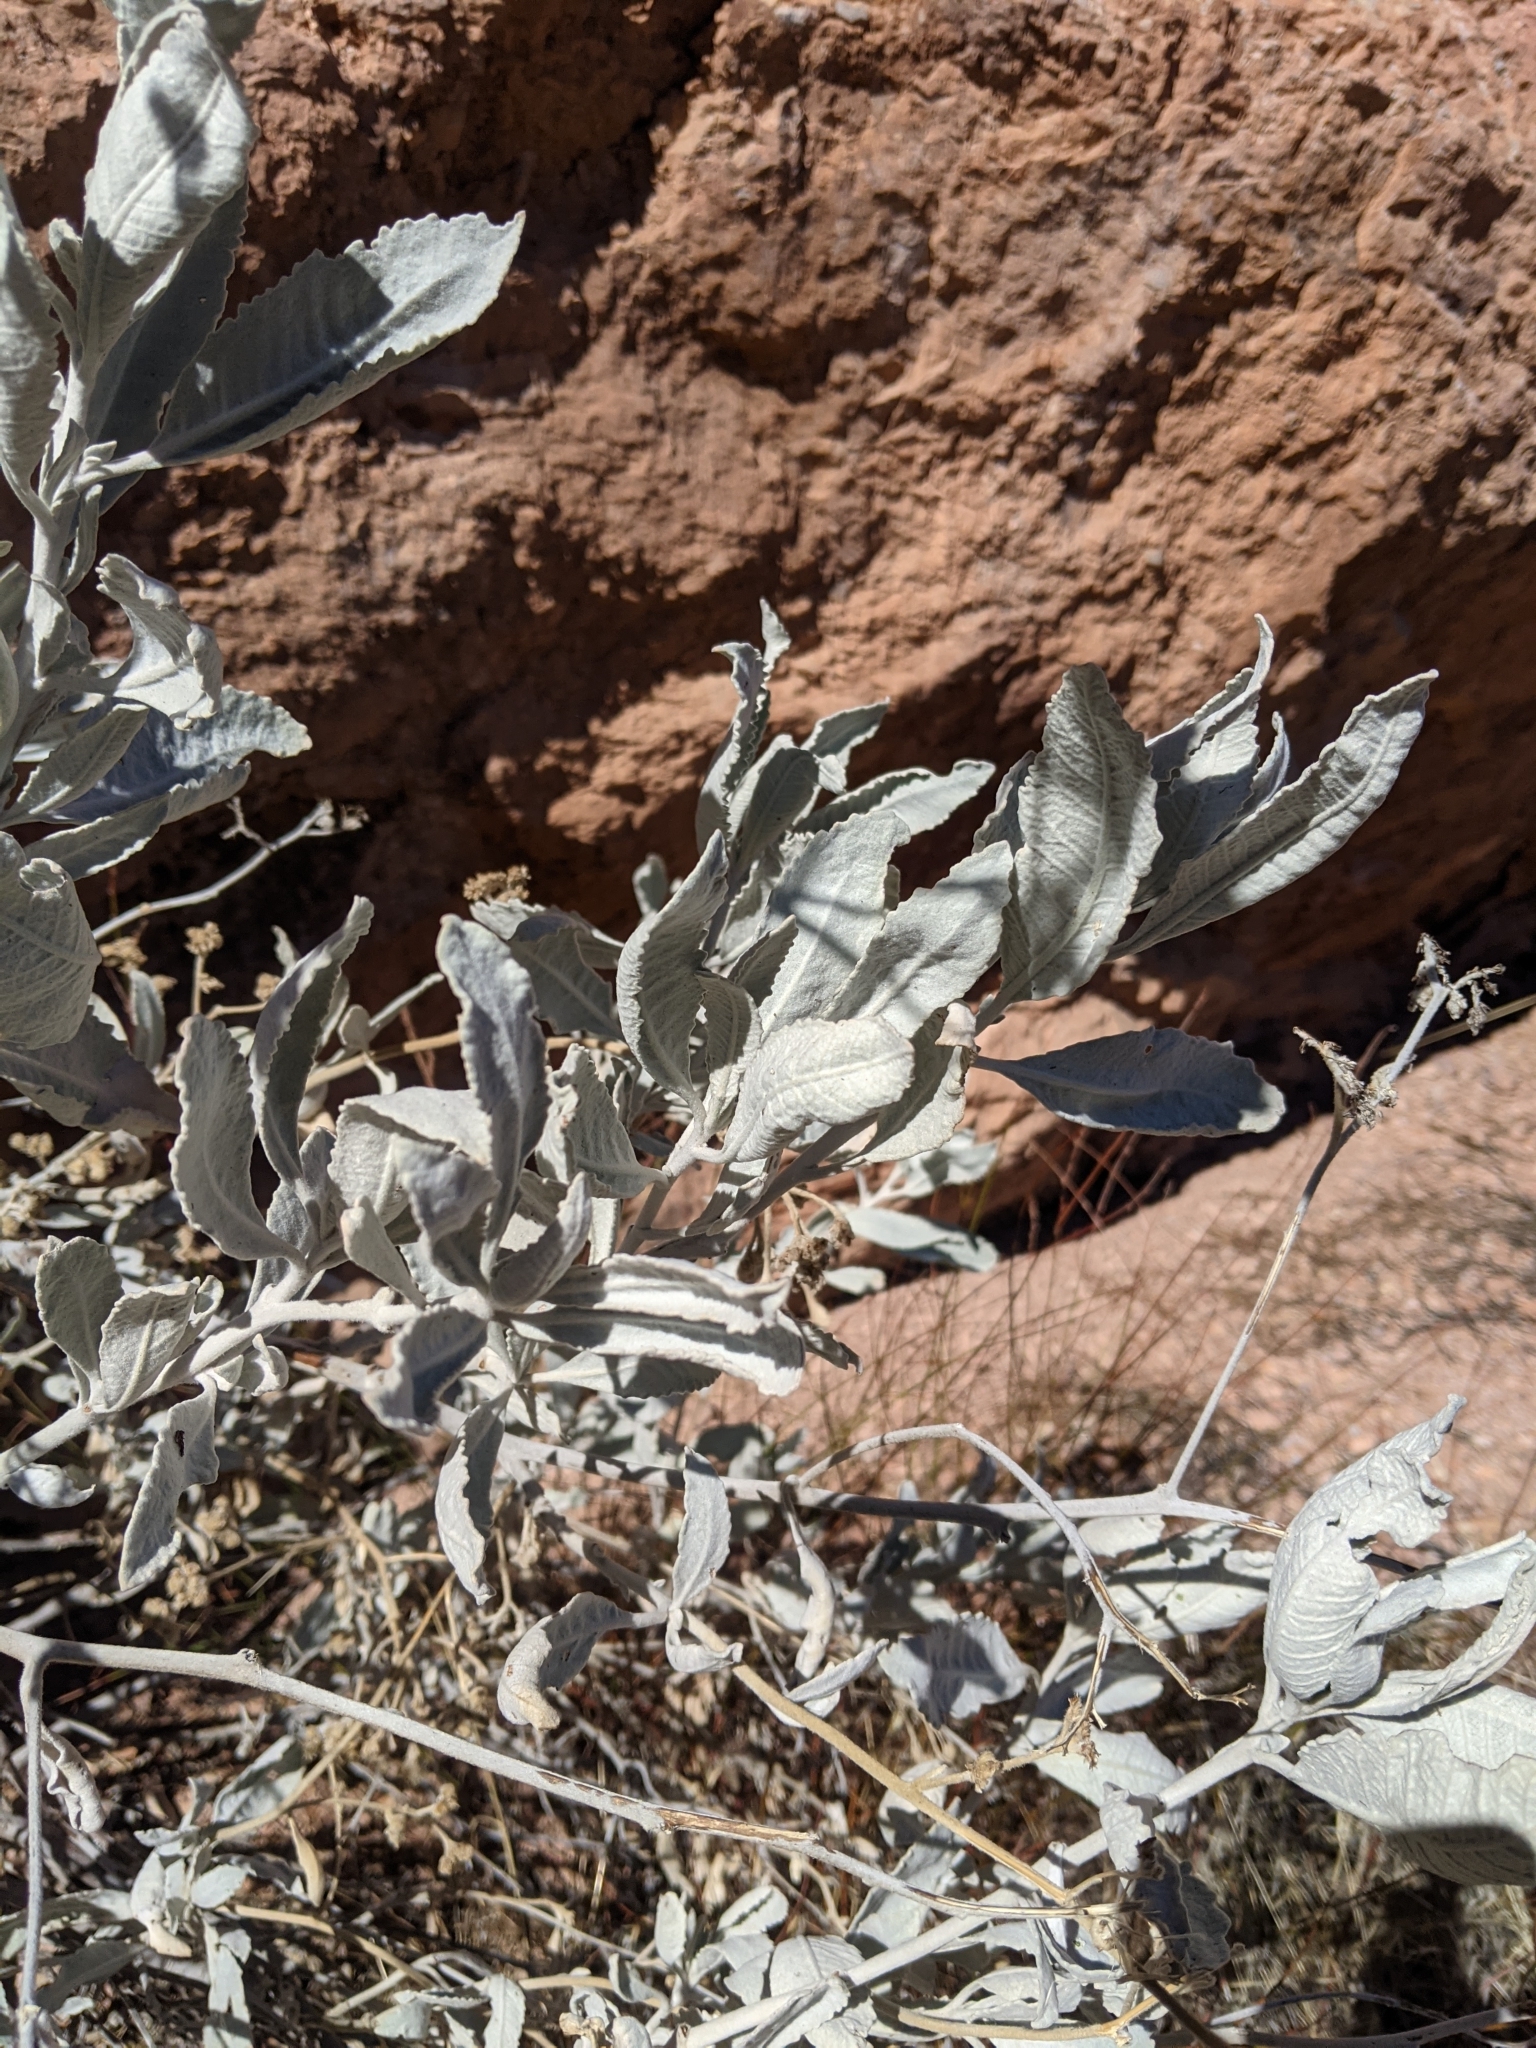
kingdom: Plantae
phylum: Tracheophyta
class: Magnoliopsida
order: Boraginales
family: Namaceae
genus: Eriodictyon
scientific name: Eriodictyon tomentosum
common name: Woolly yerba-santa
